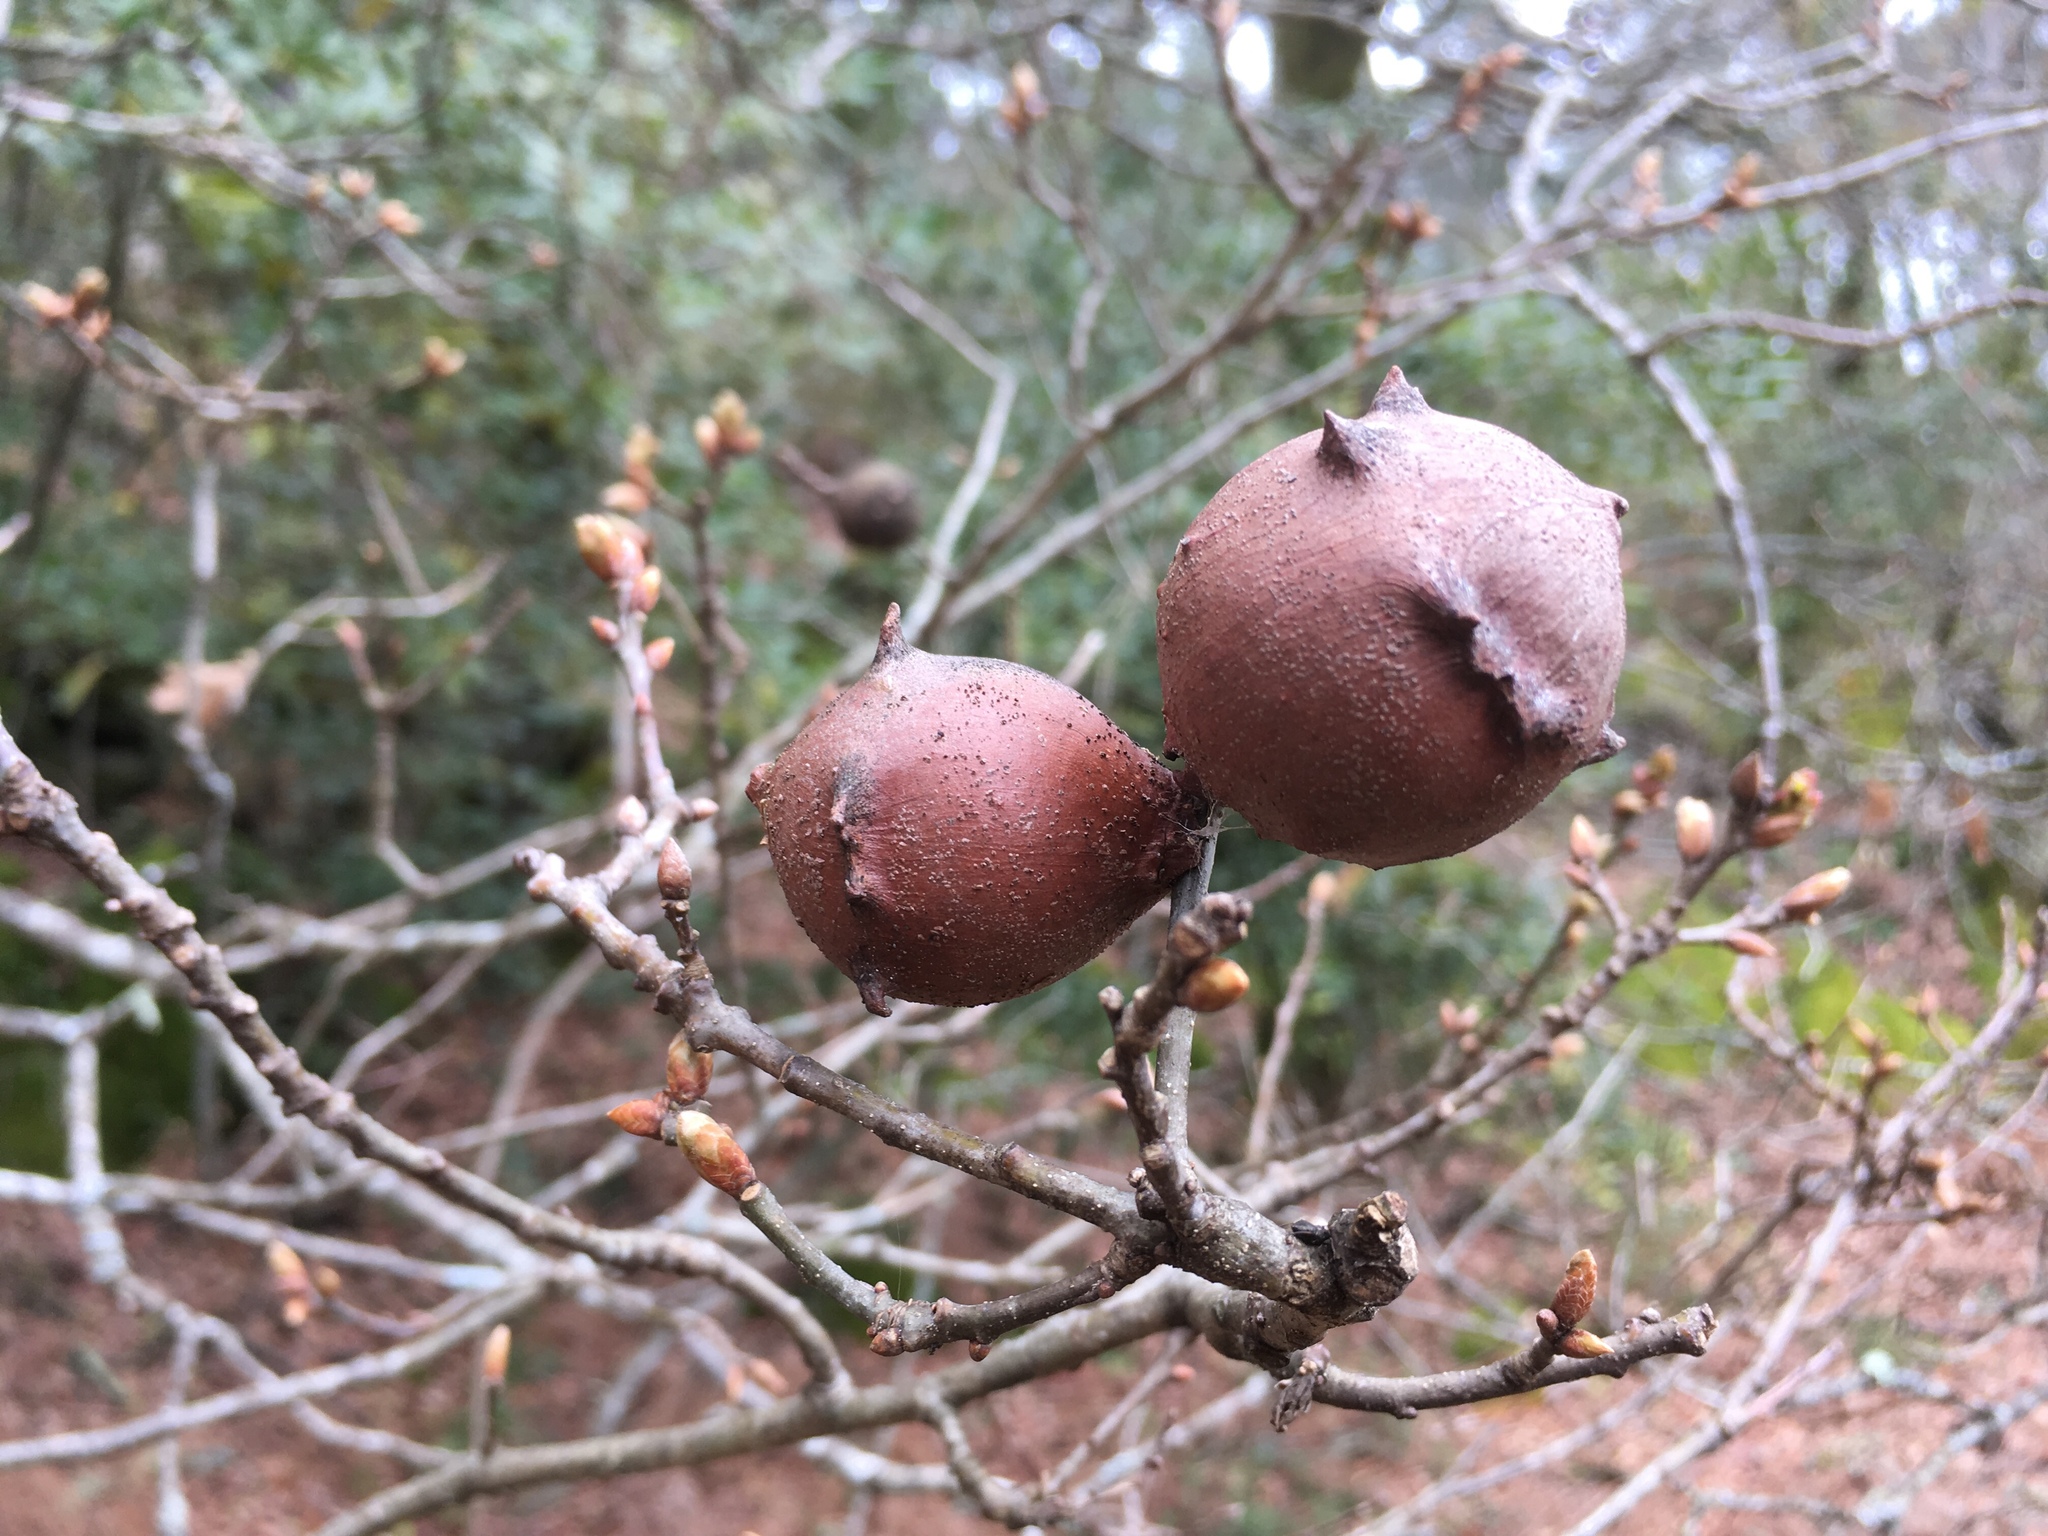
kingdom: Animalia
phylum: Arthropoda
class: Insecta
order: Hymenoptera
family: Cynipidae
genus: Andricus
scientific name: Andricus quercustozae
